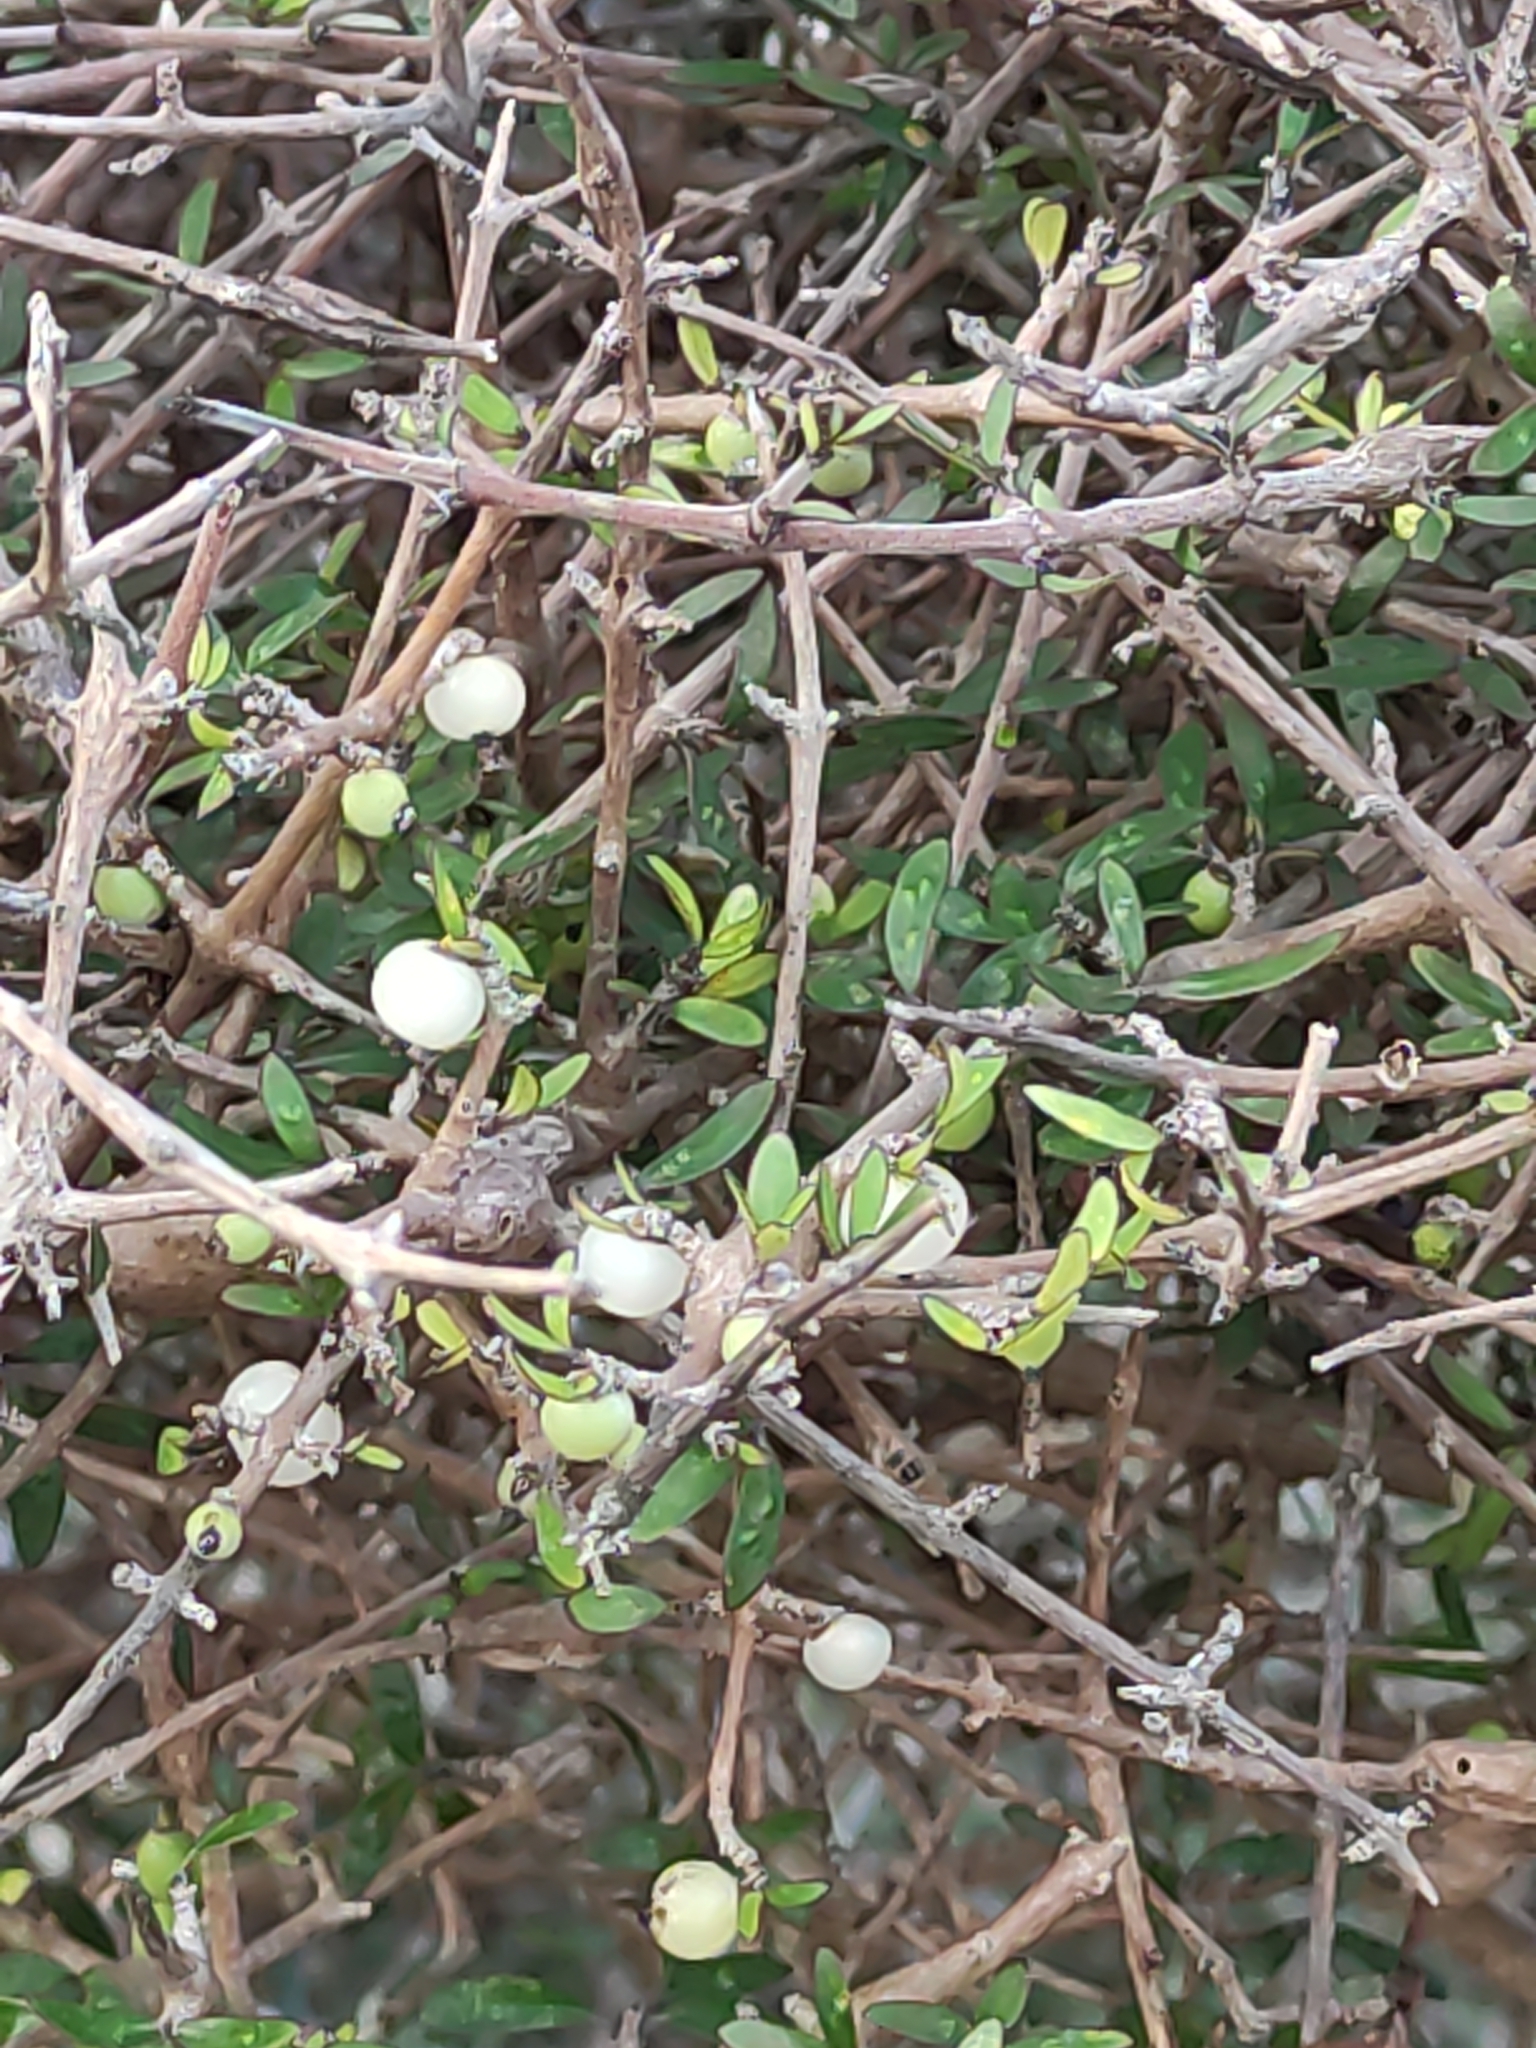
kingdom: Plantae
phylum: Tracheophyta
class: Magnoliopsida
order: Gentianales
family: Rubiaceae
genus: Coprosma
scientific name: Coprosma propinqua
